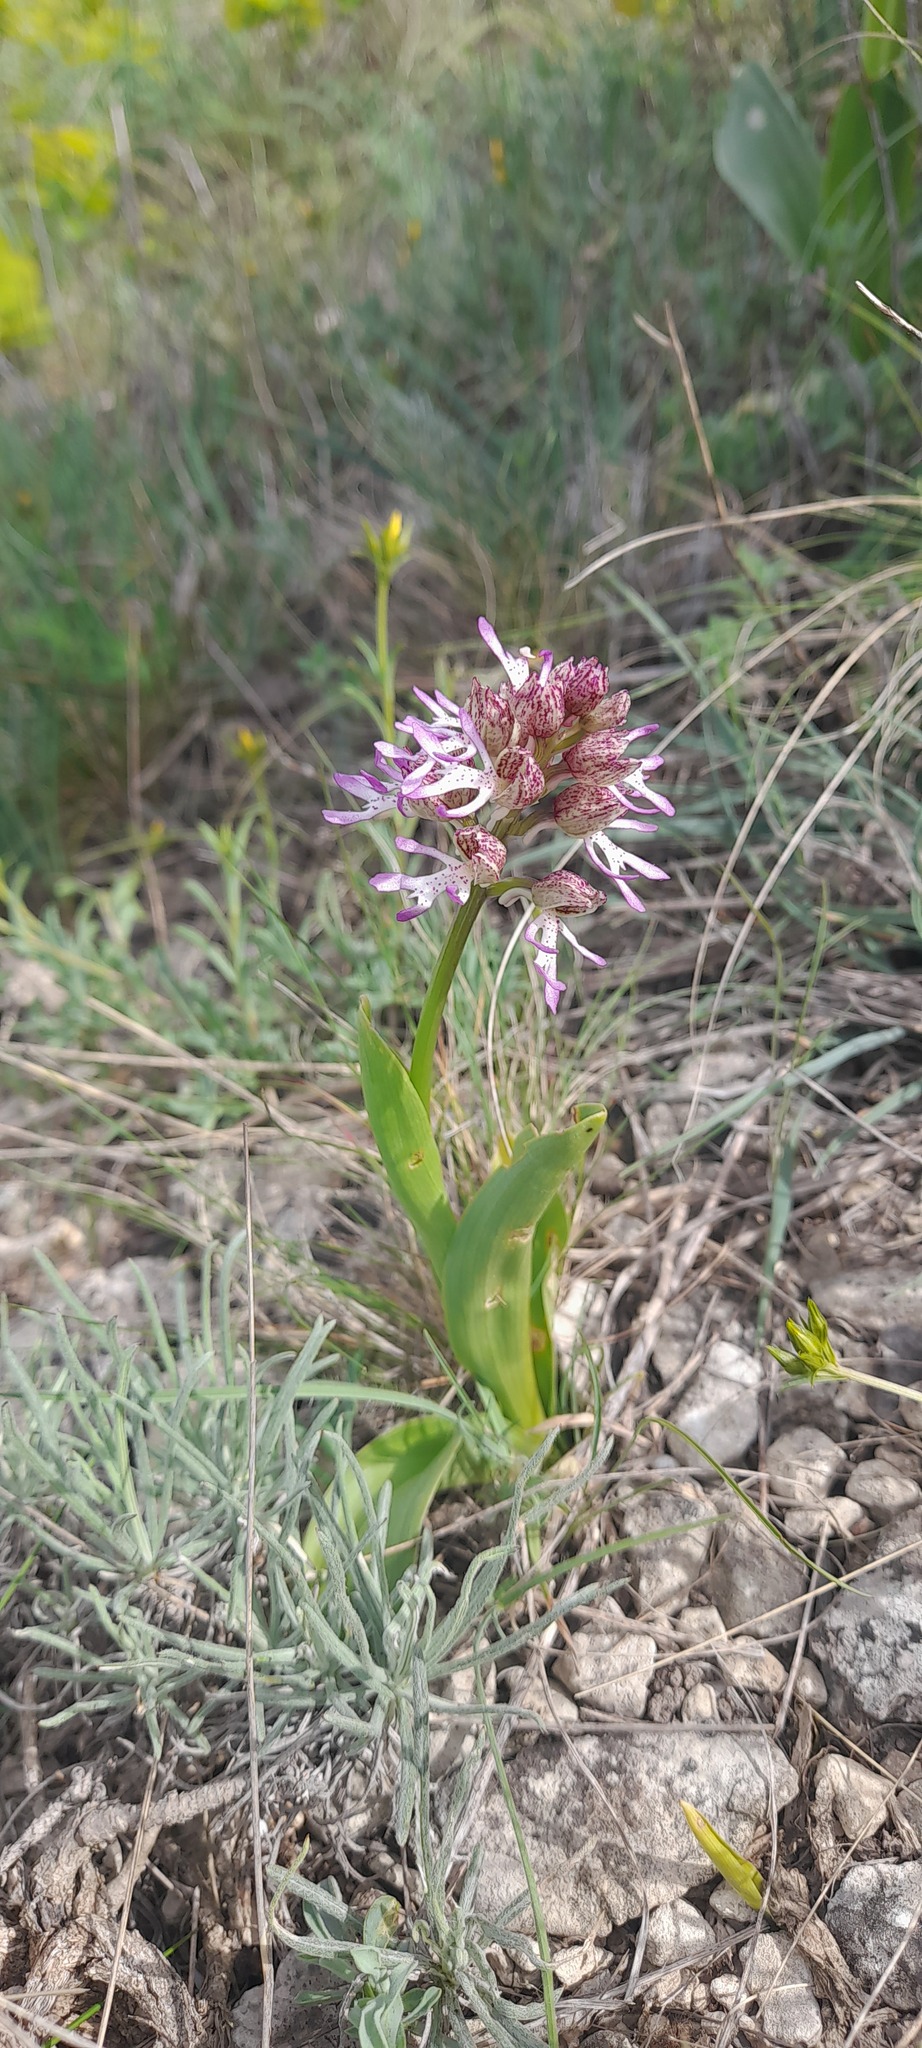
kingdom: Plantae
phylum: Tracheophyta
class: Liliopsida
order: Asparagales
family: Orchidaceae
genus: Orchis
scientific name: Orchis angusticruris
